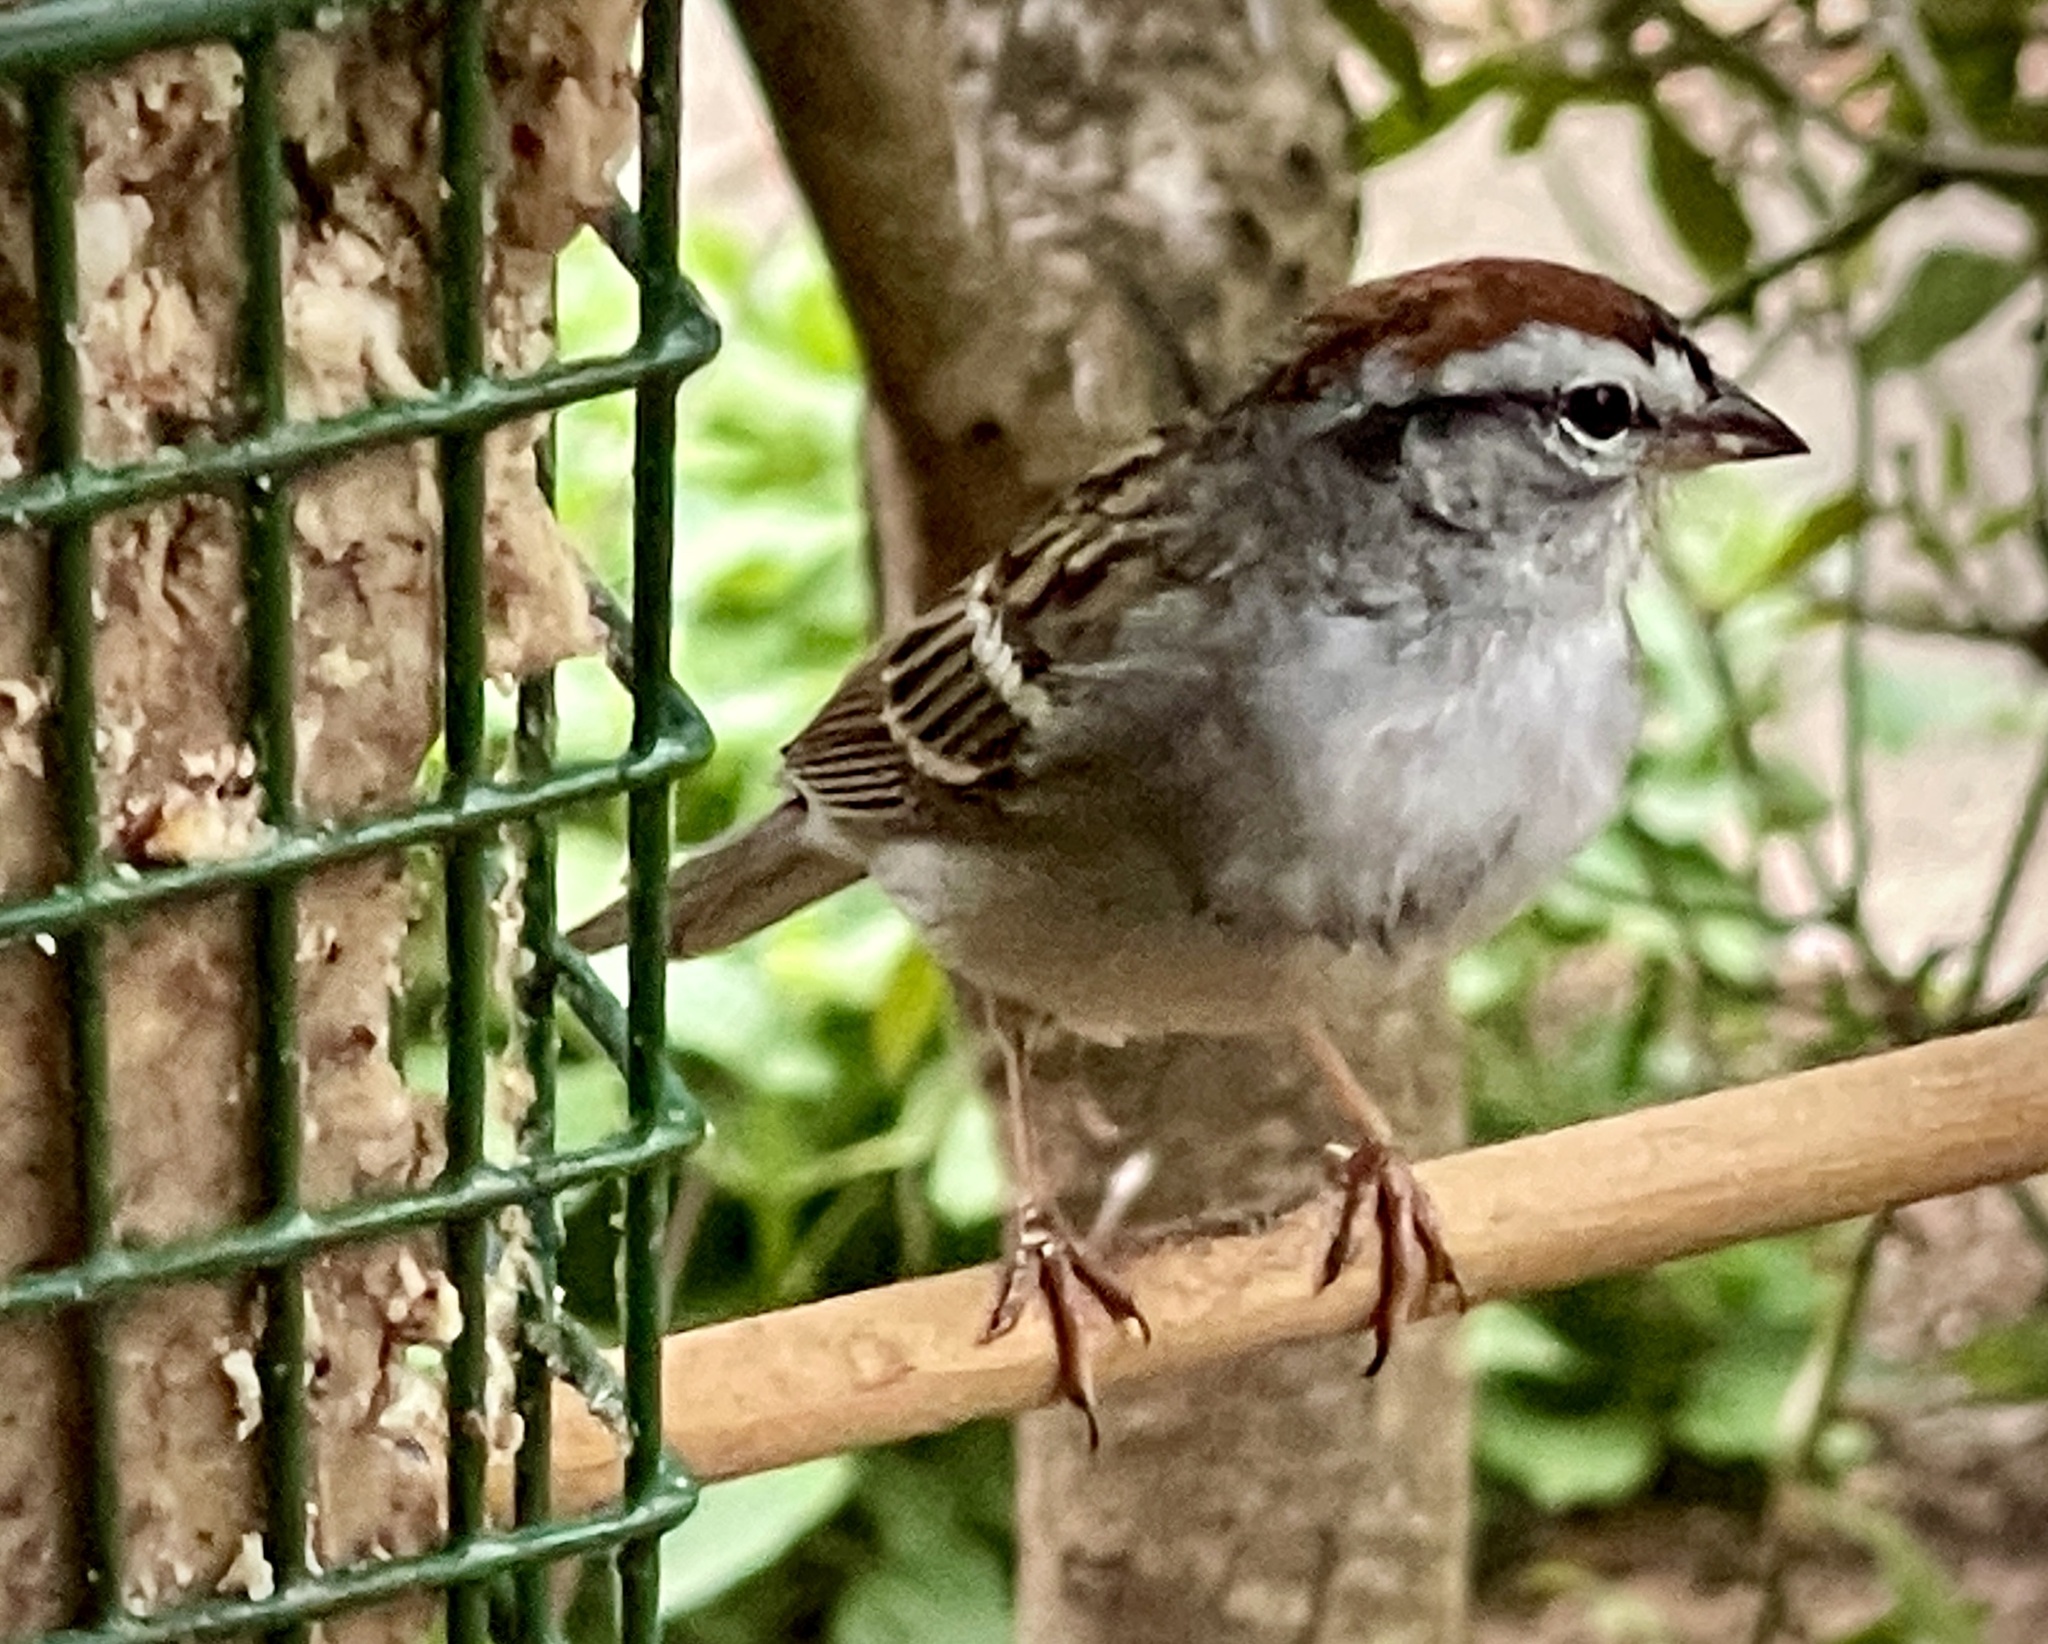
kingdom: Animalia
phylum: Chordata
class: Aves
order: Passeriformes
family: Passerellidae
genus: Spizella
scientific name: Spizella passerina
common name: Chipping sparrow
